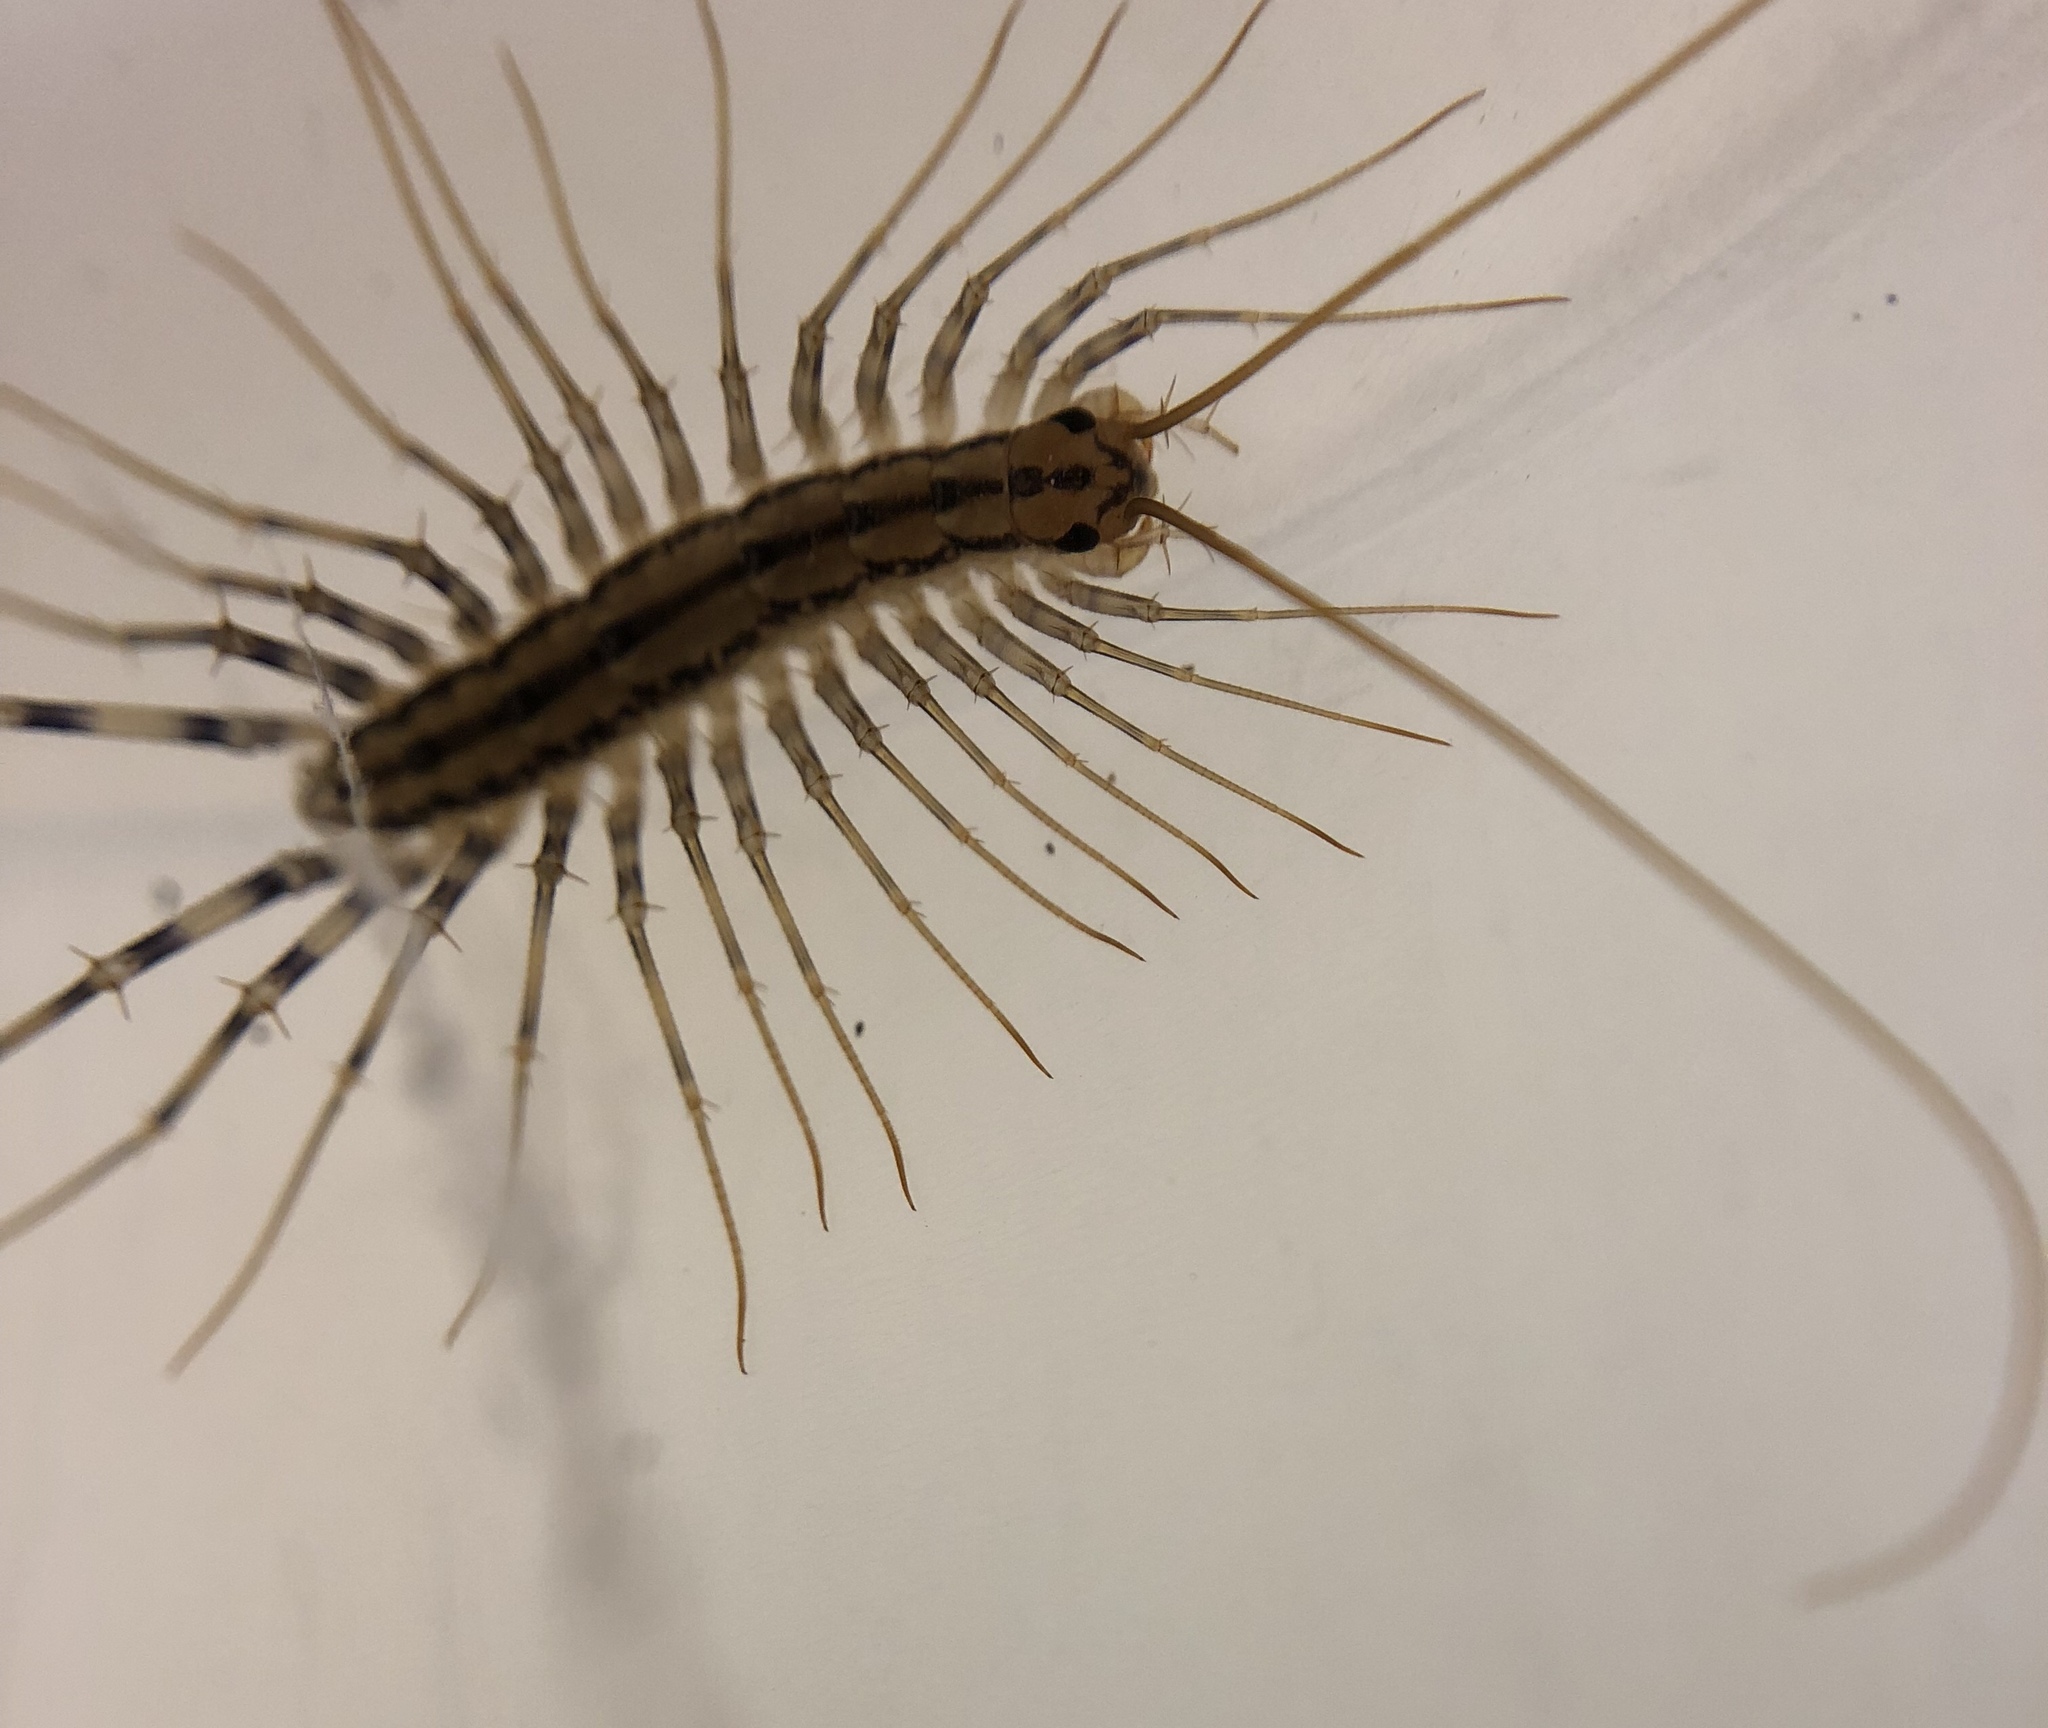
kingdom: Animalia
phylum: Arthropoda
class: Chilopoda
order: Scutigeromorpha
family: Scutigeridae
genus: Scutigera
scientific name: Scutigera coleoptrata
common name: House centipede
